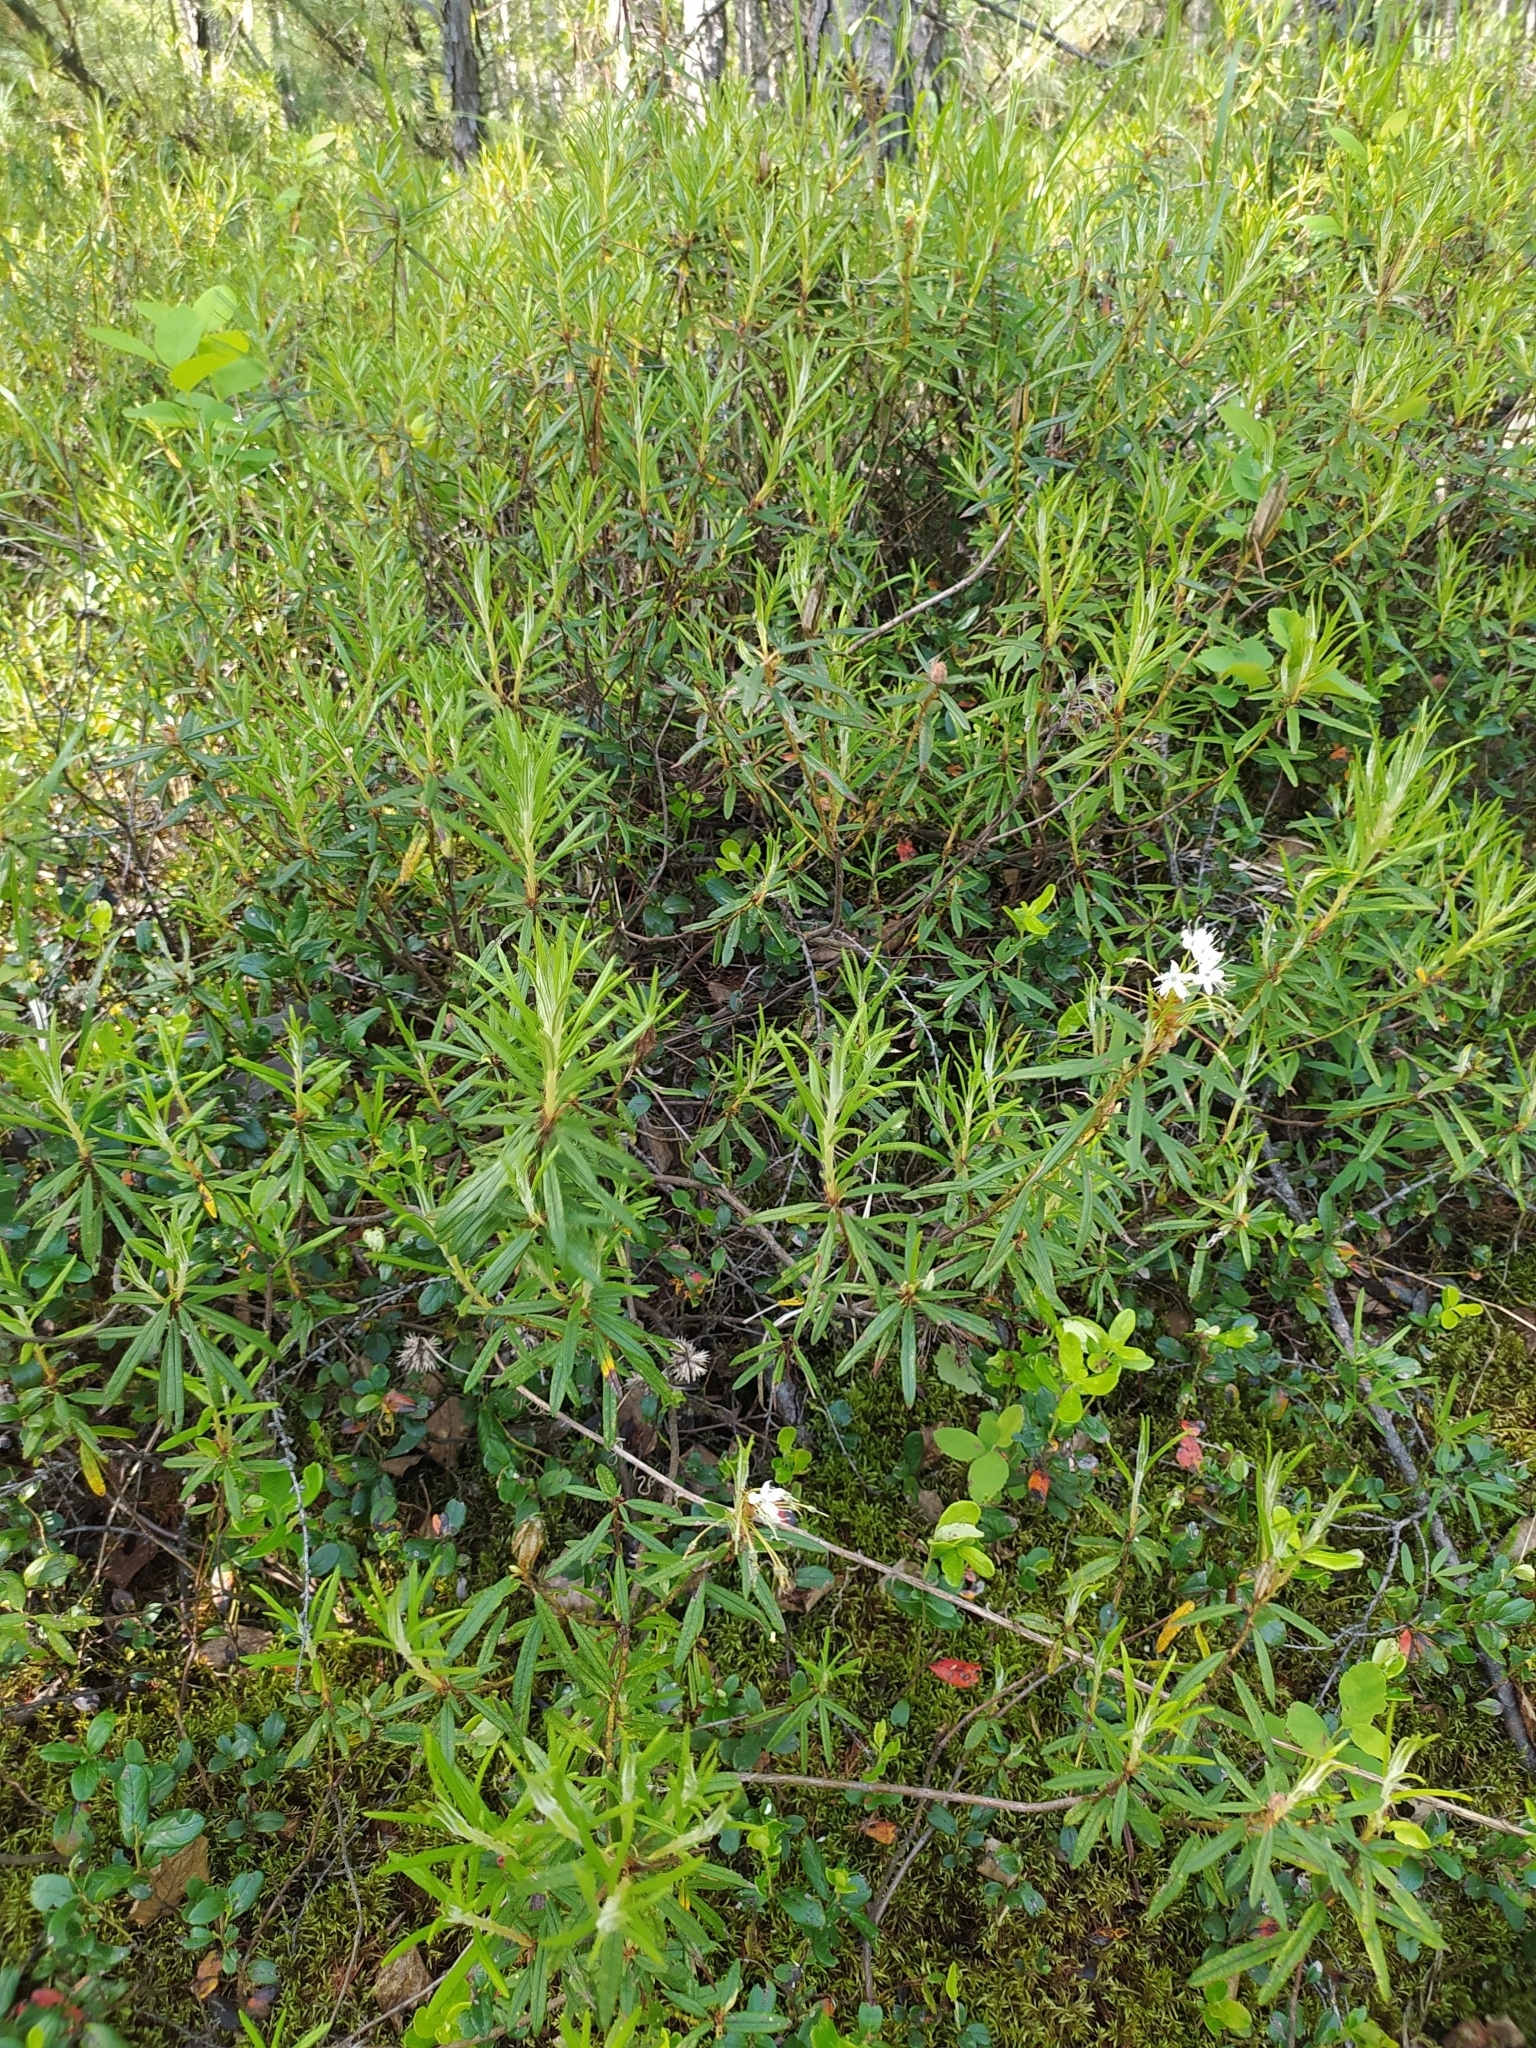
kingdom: Plantae
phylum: Tracheophyta
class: Magnoliopsida
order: Ericales
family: Ericaceae
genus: Rhododendron
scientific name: Rhododendron tomentosum
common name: Marsh labrador tea
